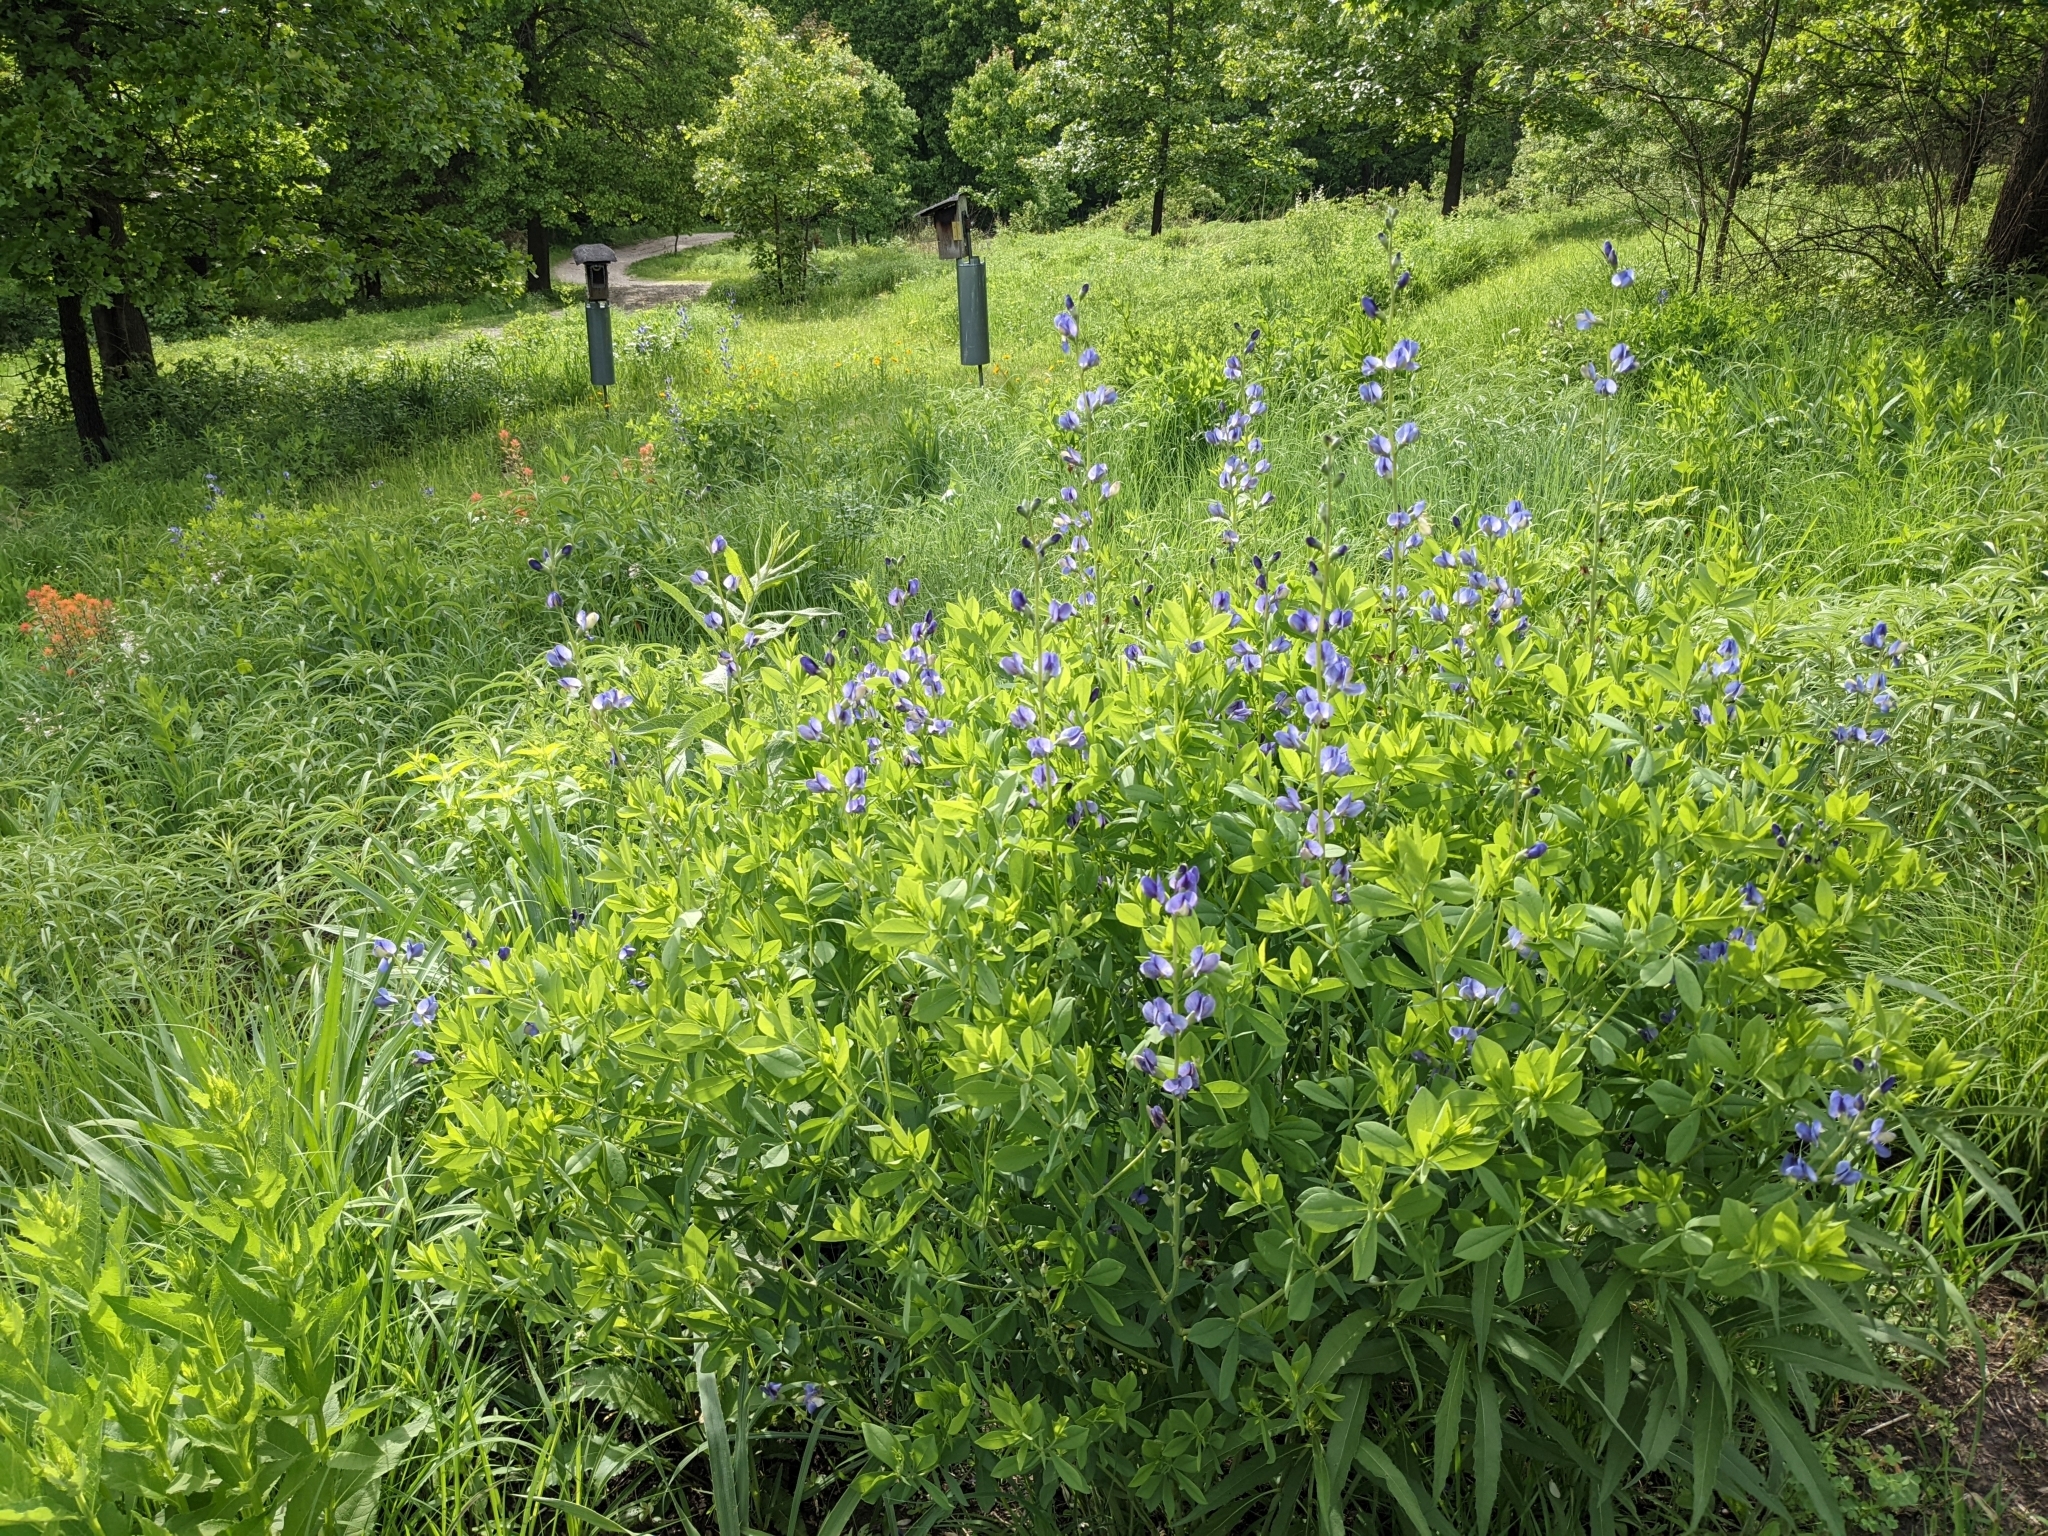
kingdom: Plantae
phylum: Tracheophyta
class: Magnoliopsida
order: Fabales
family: Fabaceae
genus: Baptisia
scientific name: Baptisia australis
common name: Blue false indigo
